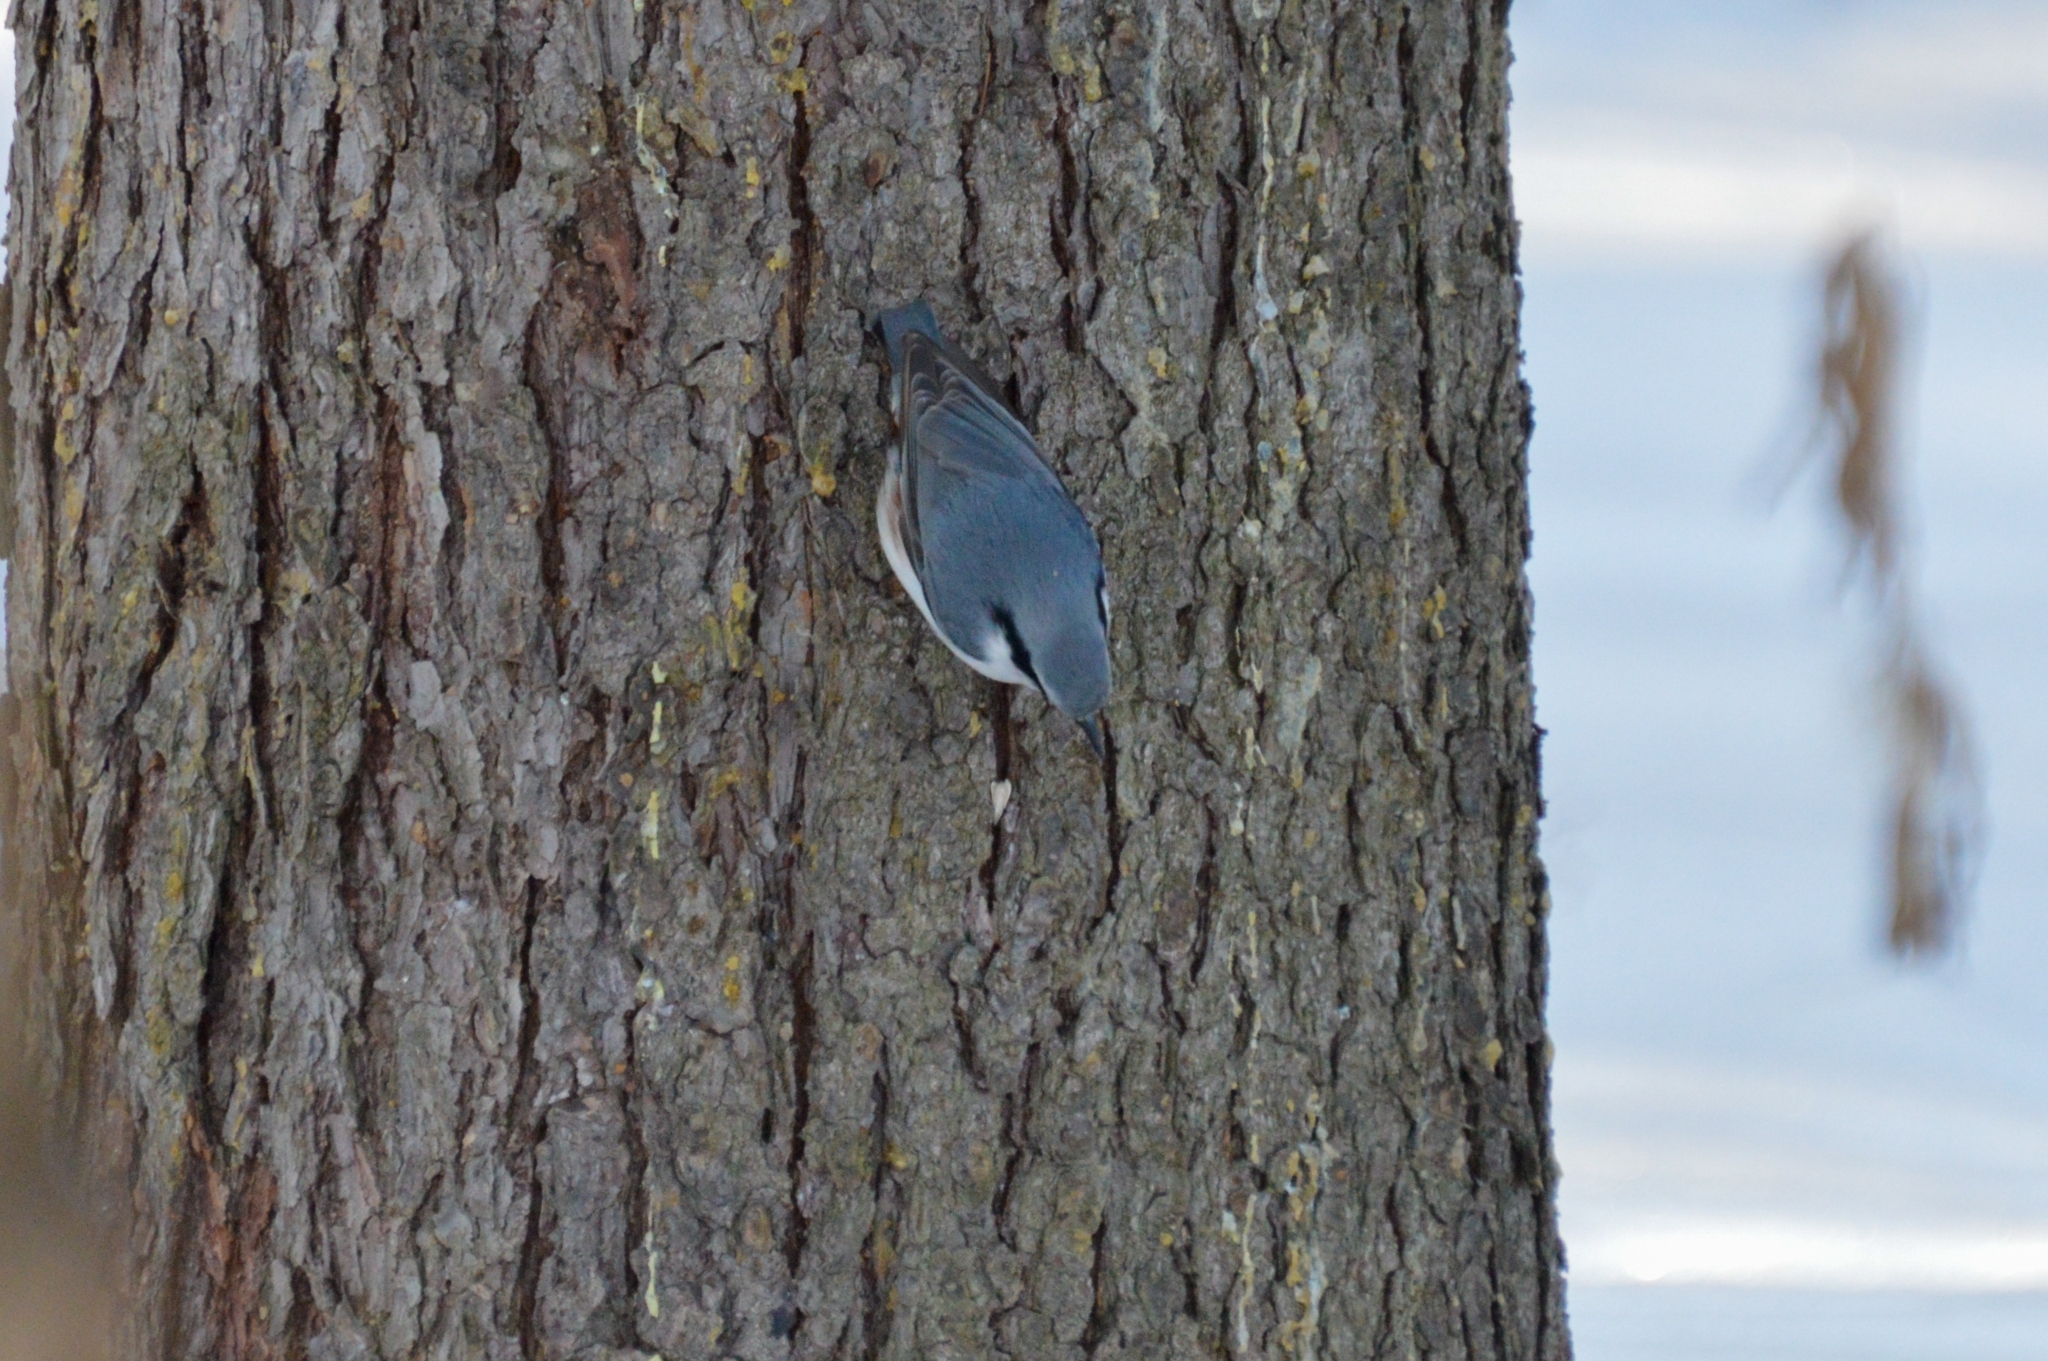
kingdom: Animalia
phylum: Chordata
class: Aves
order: Passeriformes
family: Sittidae
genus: Sitta
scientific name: Sitta europaea
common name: Eurasian nuthatch
